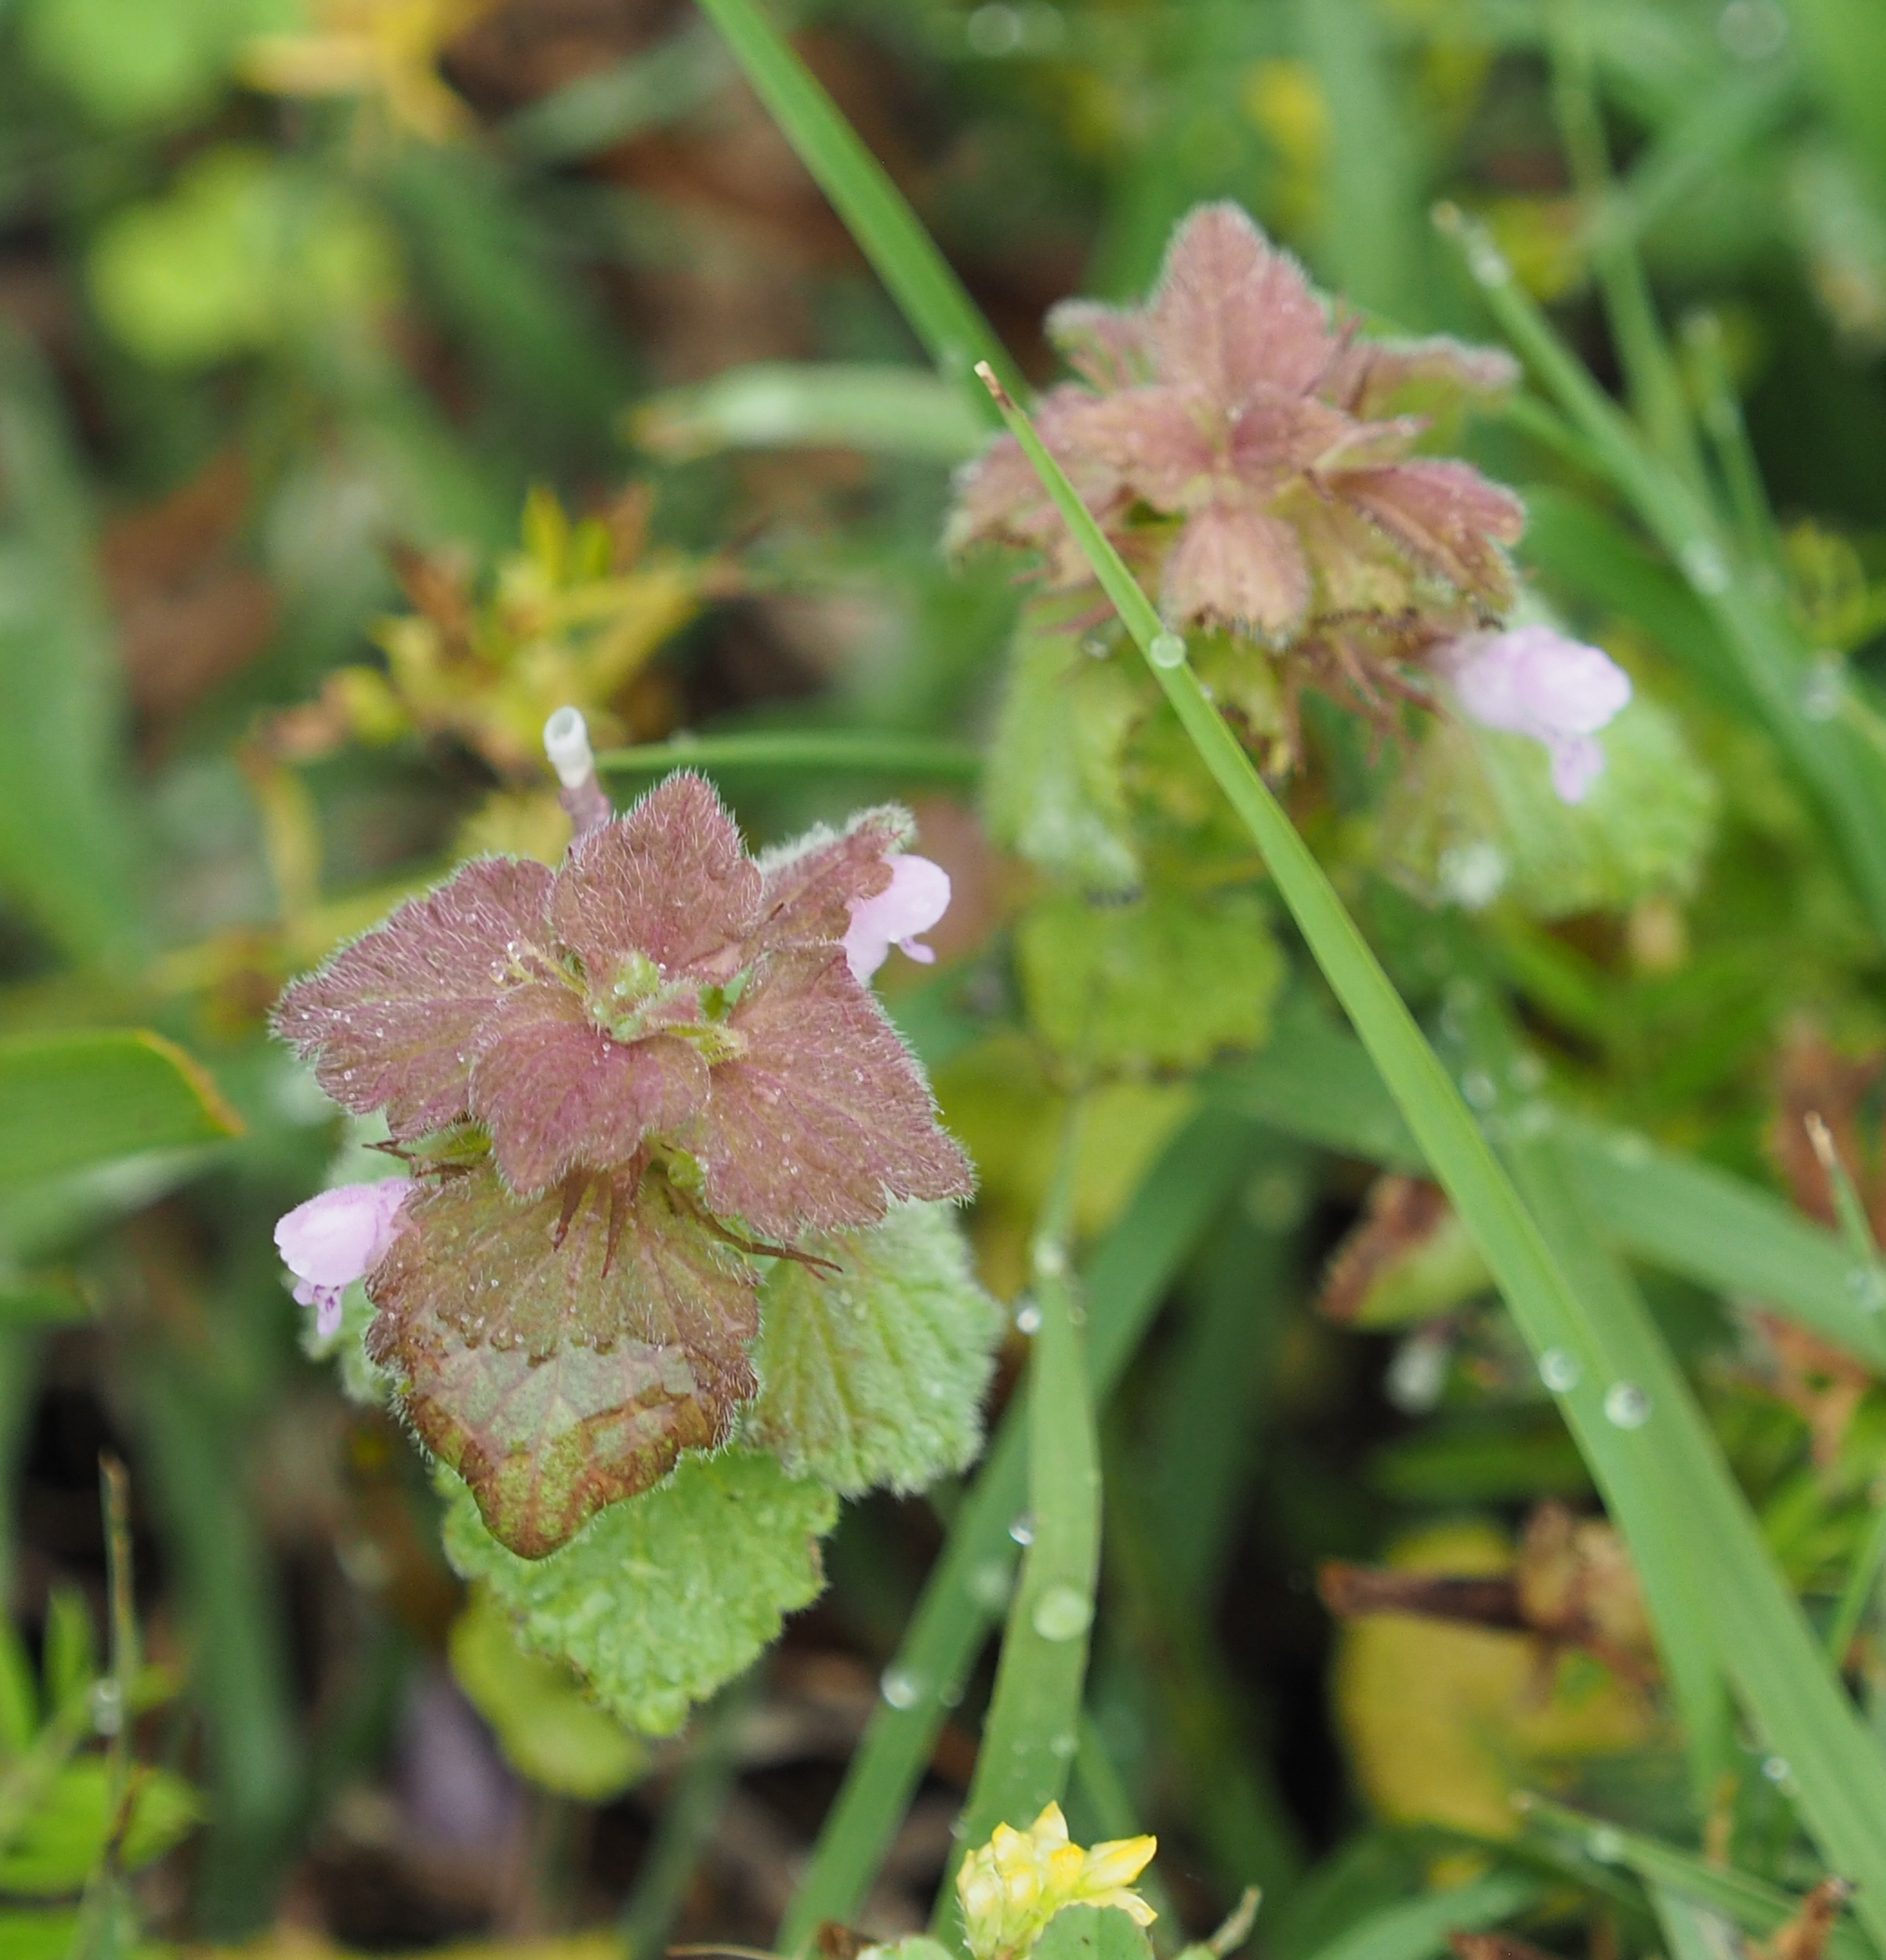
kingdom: Plantae
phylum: Tracheophyta
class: Magnoliopsida
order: Lamiales
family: Lamiaceae
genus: Lamium
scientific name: Lamium purpureum
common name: Red dead-nettle
